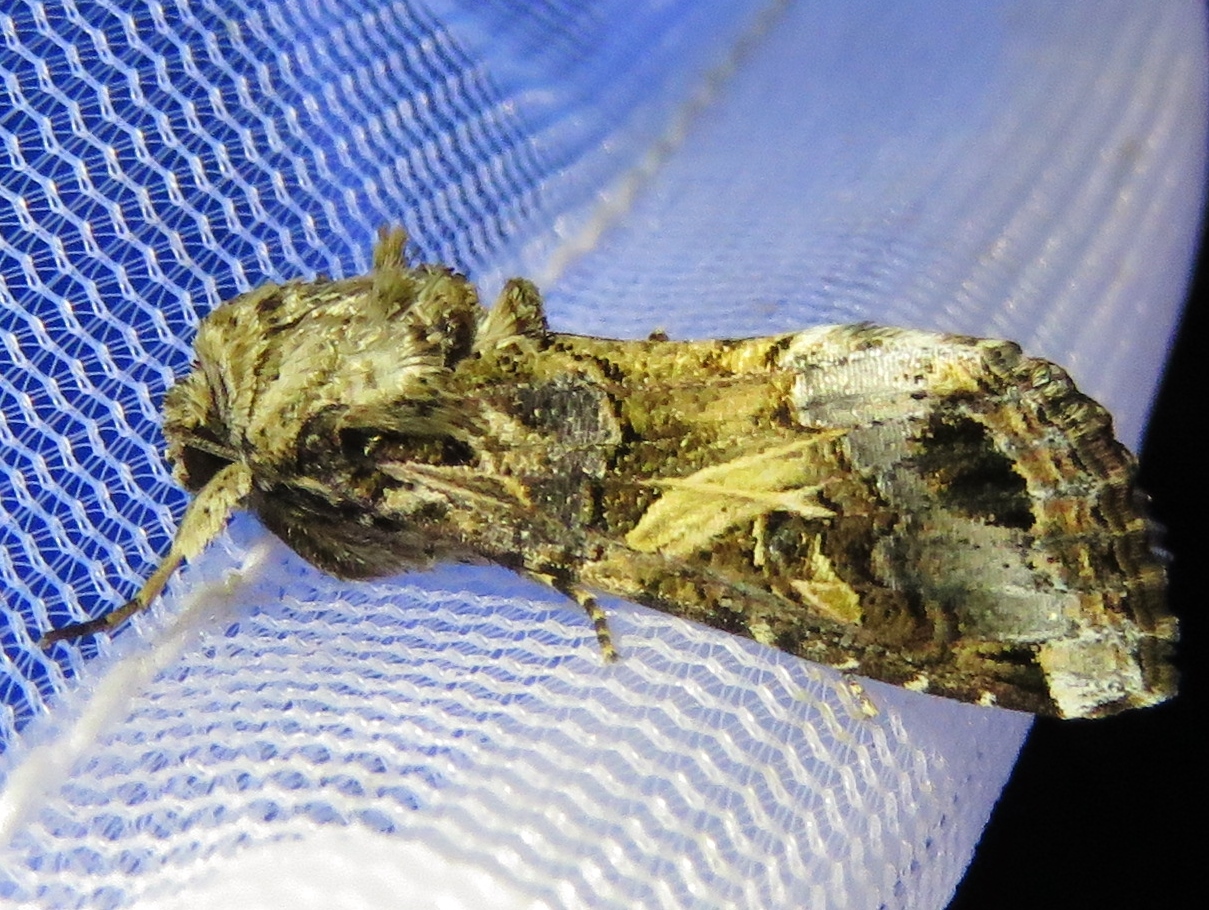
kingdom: Animalia
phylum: Arthropoda
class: Insecta
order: Lepidoptera
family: Noctuidae
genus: Spodoptera
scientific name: Spodoptera ornithogalli
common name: Yellow-striped armyworm
